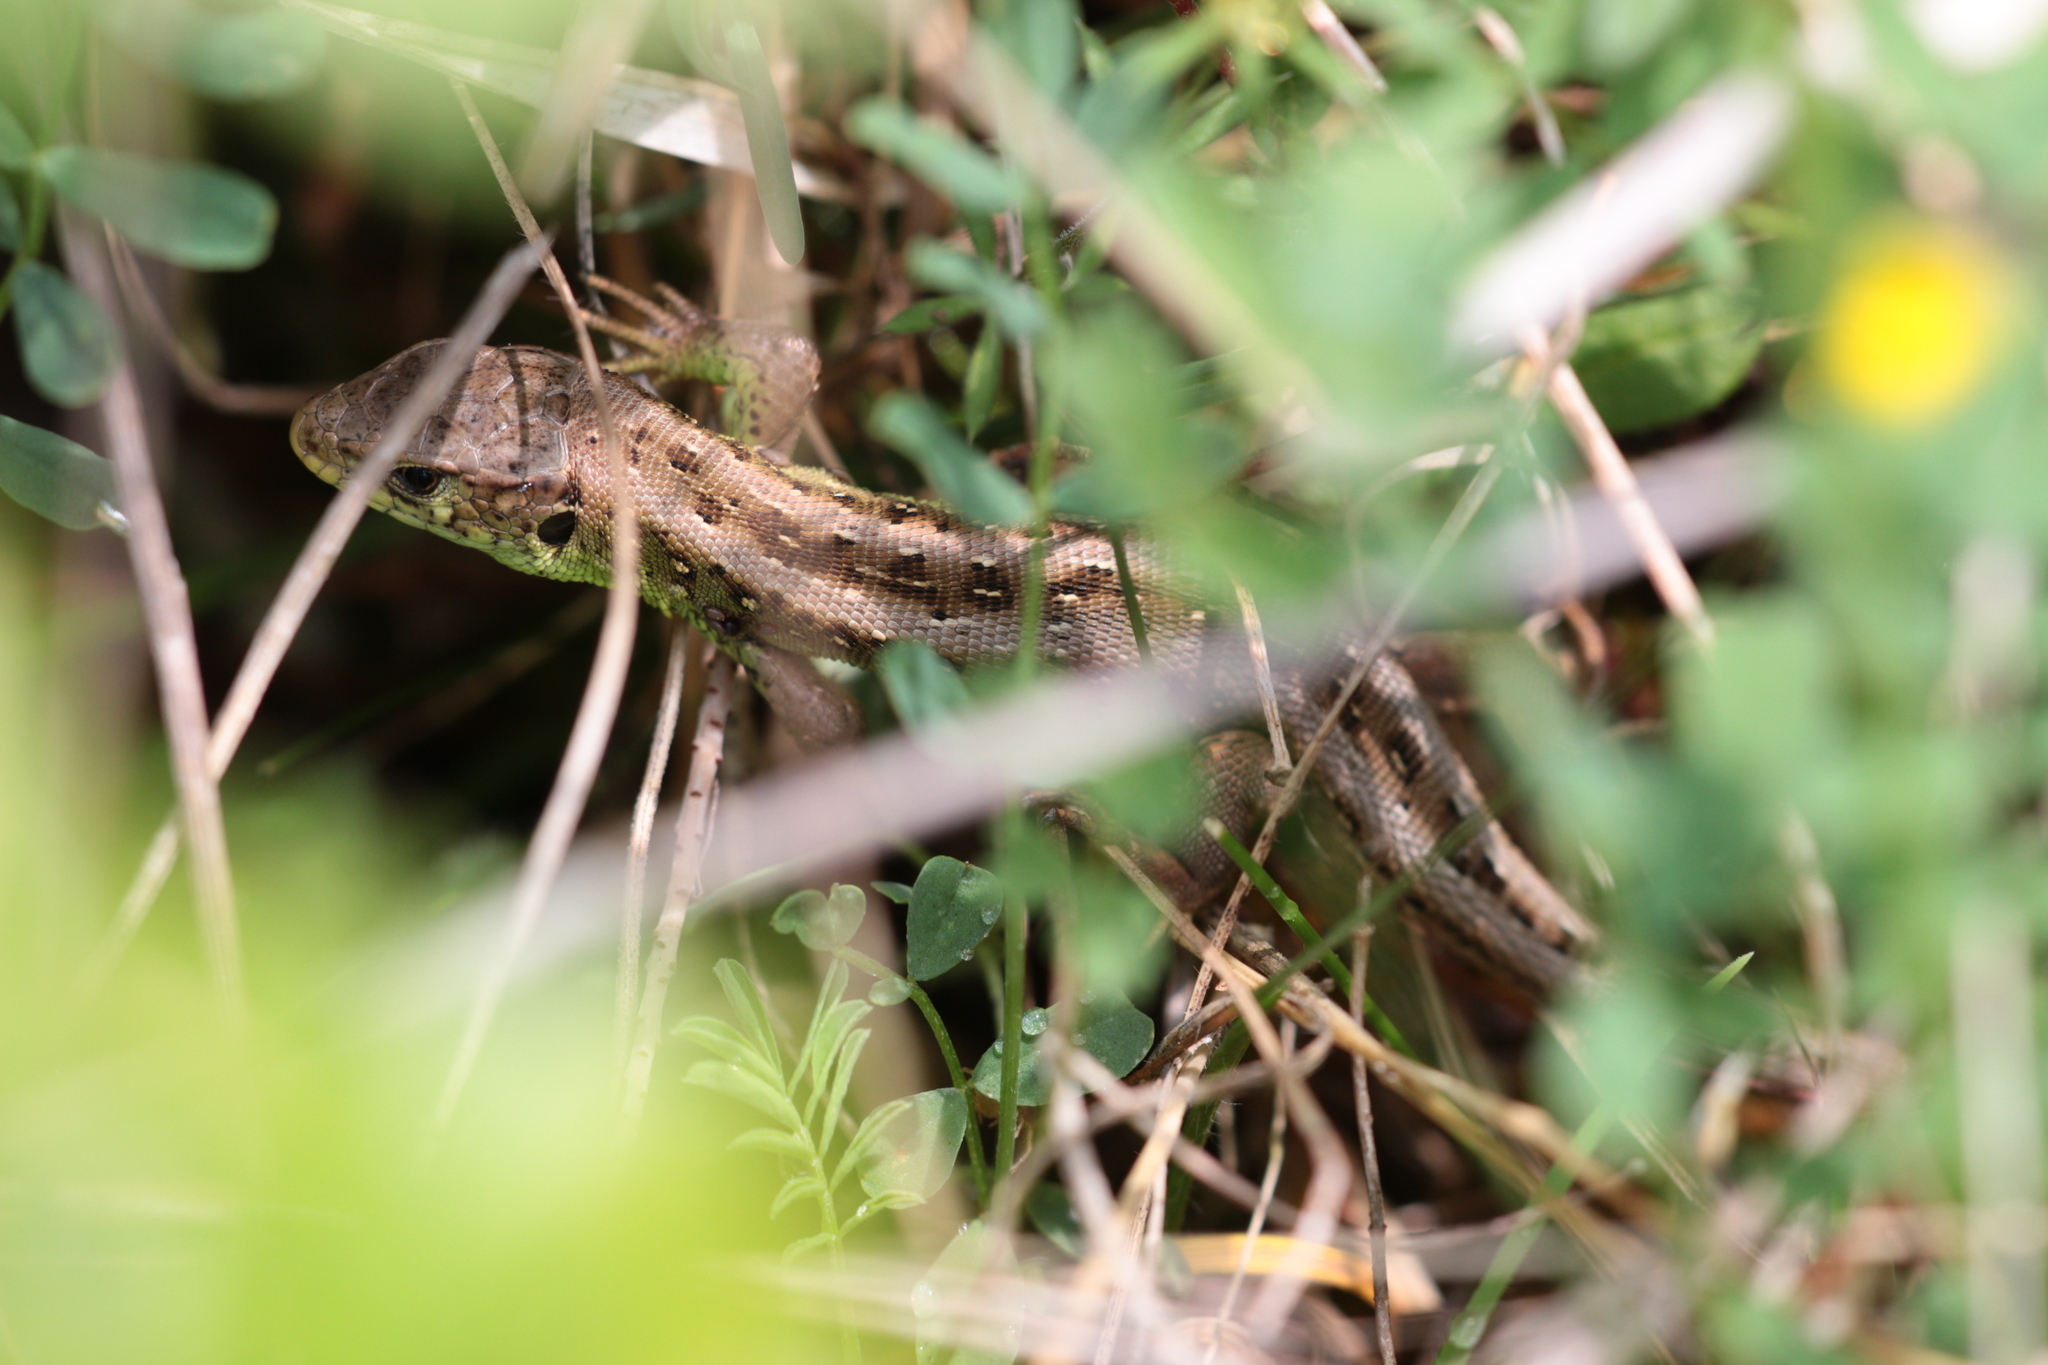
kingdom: Animalia
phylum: Chordata
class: Squamata
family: Lacertidae
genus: Lacerta
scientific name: Lacerta agilis
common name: Sand lizard
